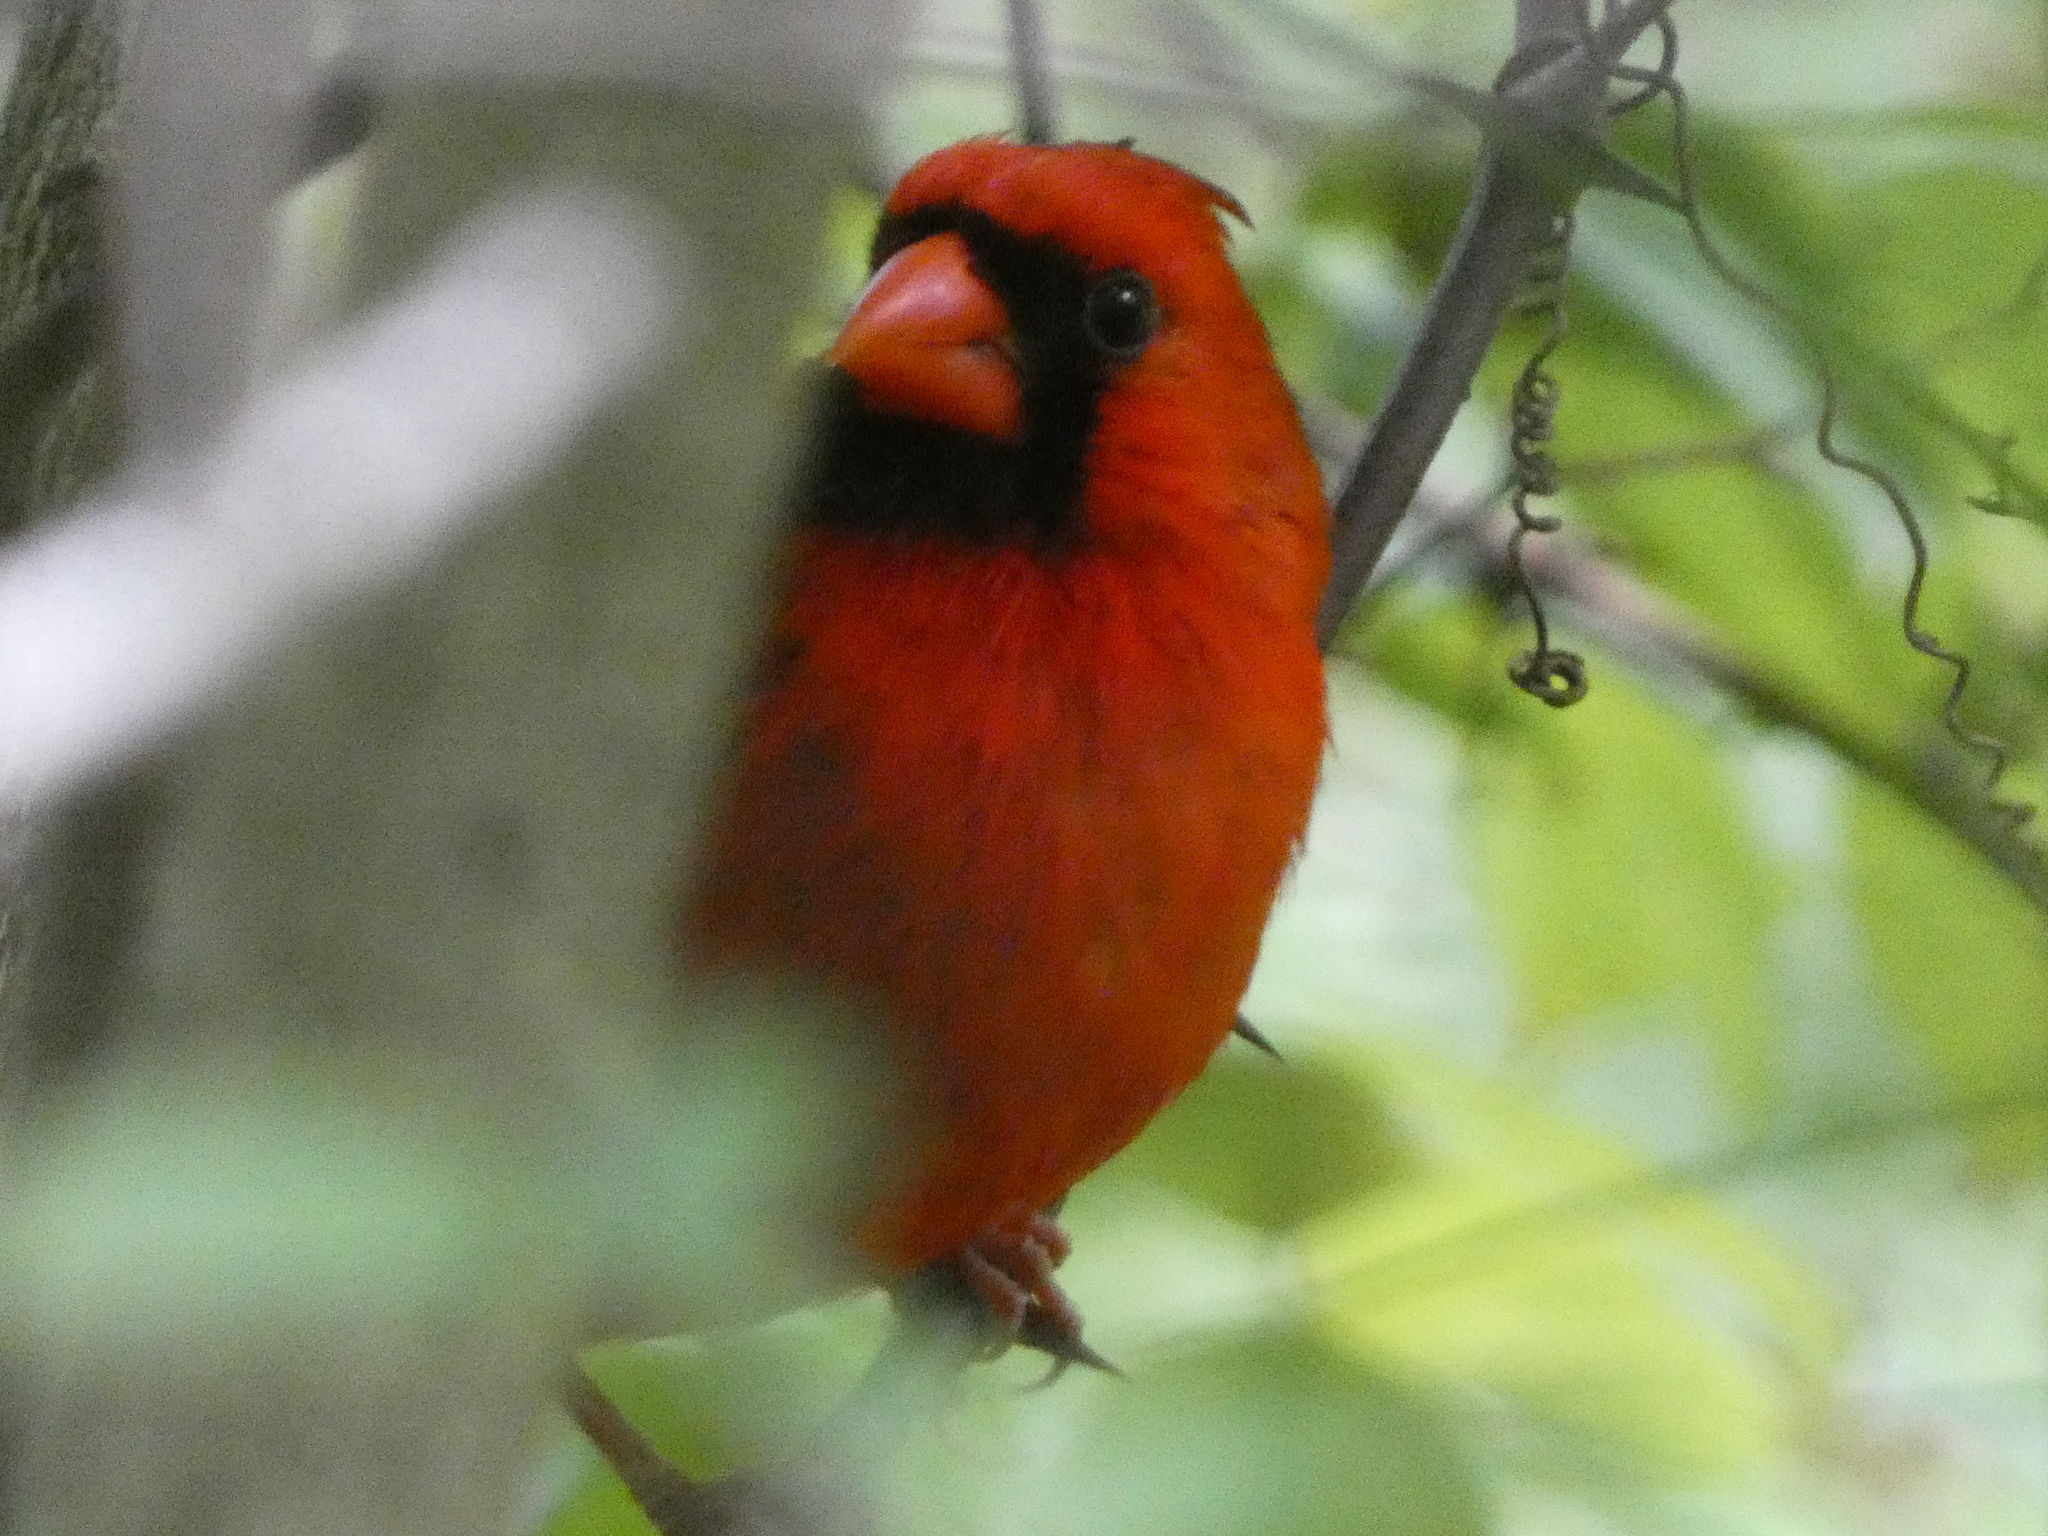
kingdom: Animalia
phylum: Chordata
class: Aves
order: Passeriformes
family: Cardinalidae
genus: Cardinalis
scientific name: Cardinalis cardinalis
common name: Northern cardinal
